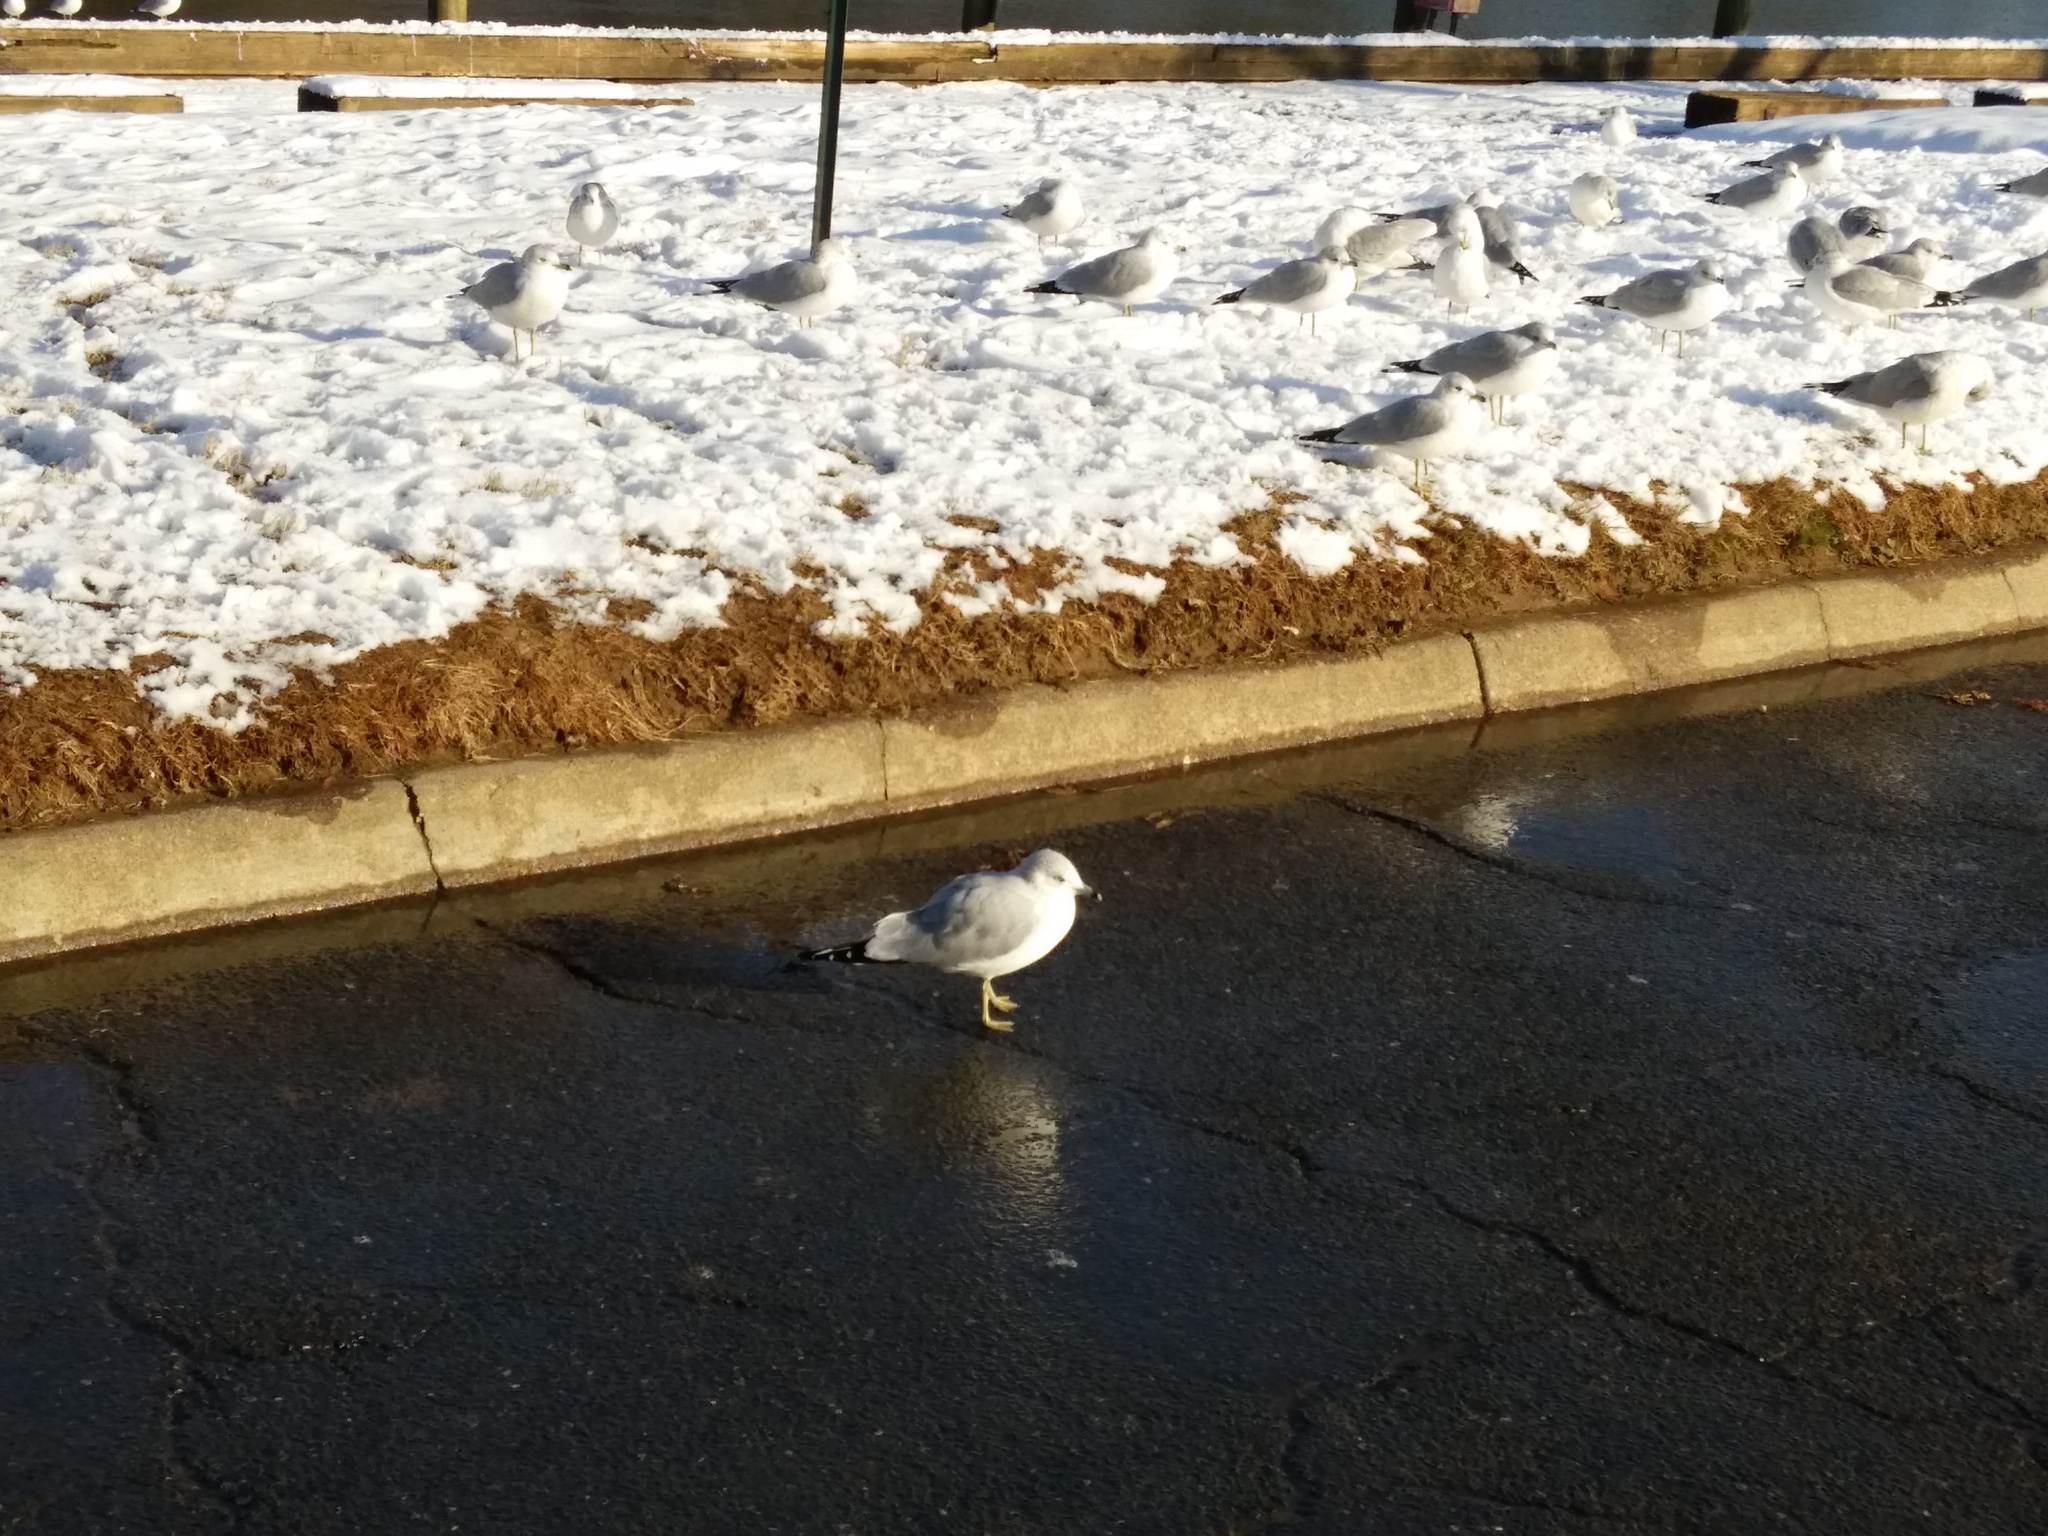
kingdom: Animalia
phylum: Chordata
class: Aves
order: Charadriiformes
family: Laridae
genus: Larus
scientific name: Larus delawarensis
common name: Ring-billed gull
